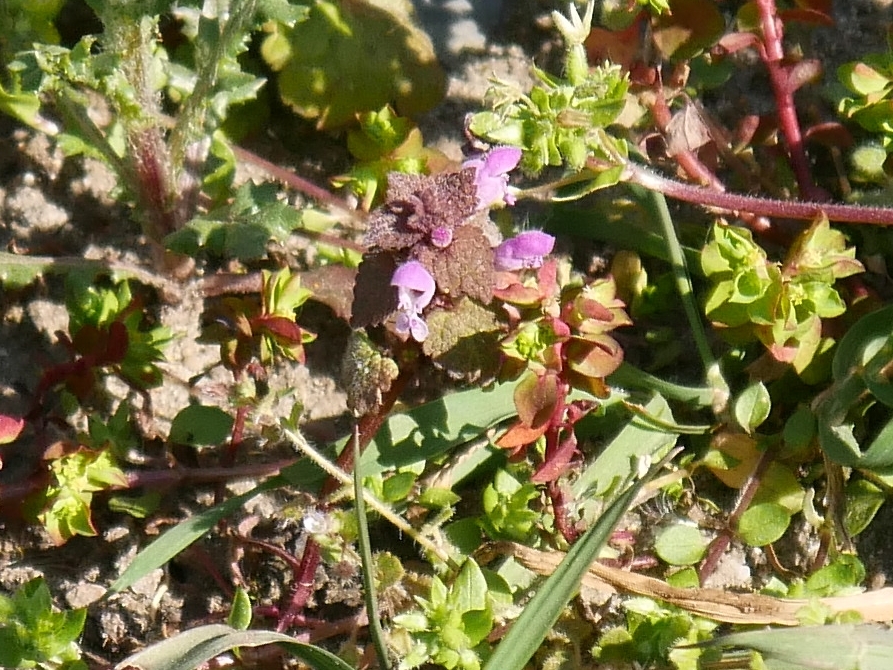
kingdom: Plantae
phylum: Tracheophyta
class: Magnoliopsida
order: Lamiales
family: Lamiaceae
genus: Lamium
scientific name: Lamium purpureum
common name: Red dead-nettle
